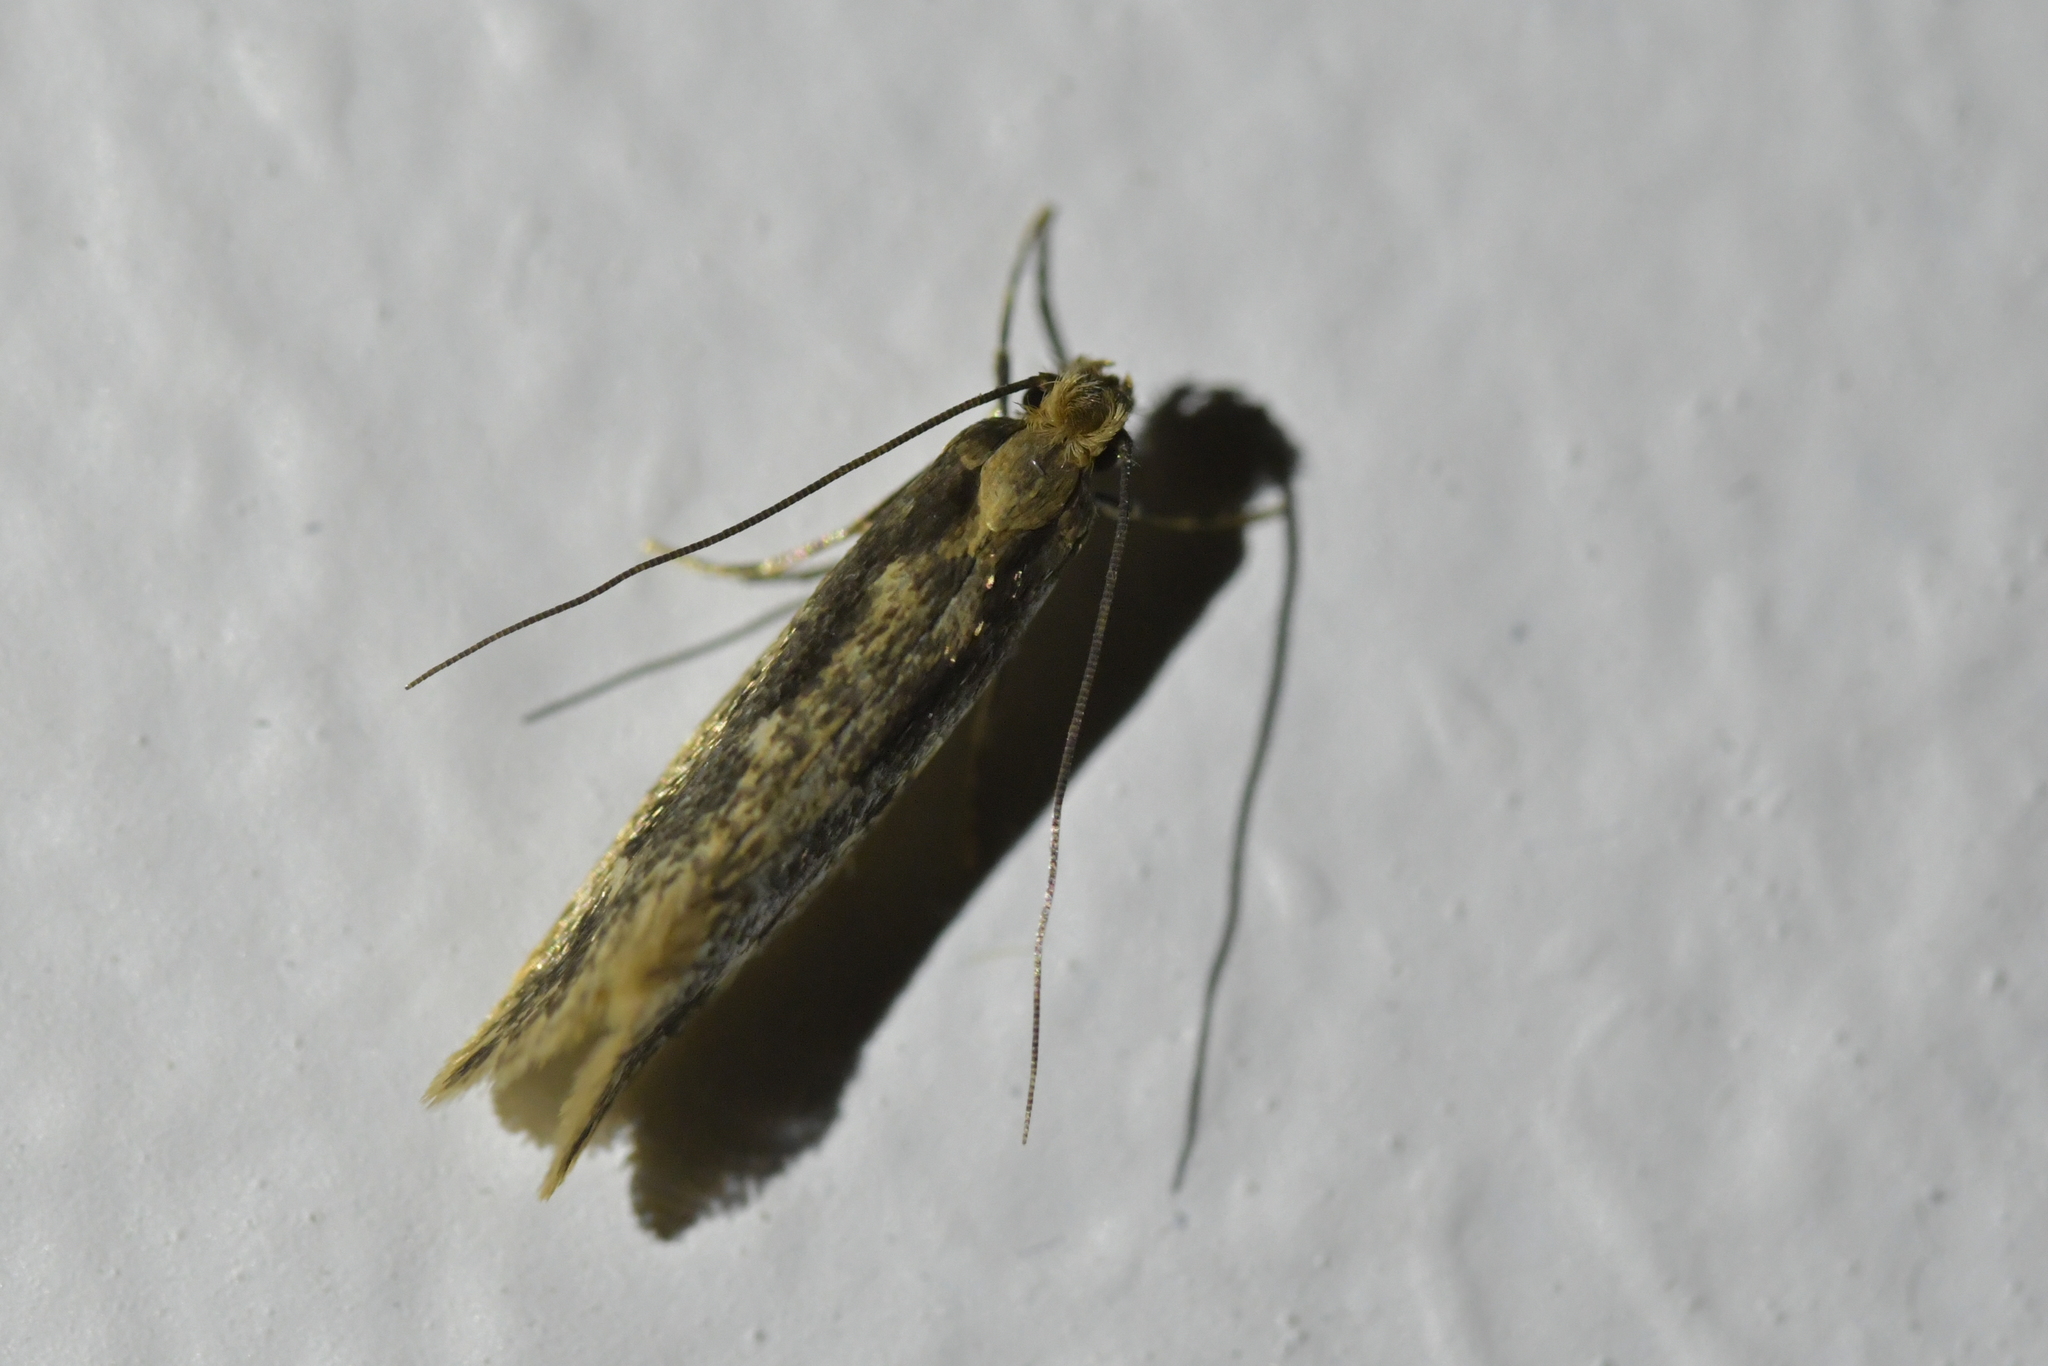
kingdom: Animalia
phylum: Arthropoda
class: Insecta
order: Lepidoptera
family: Tineidae
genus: Tinea
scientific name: Tinea pallescentella
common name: Large pale clothes moth
